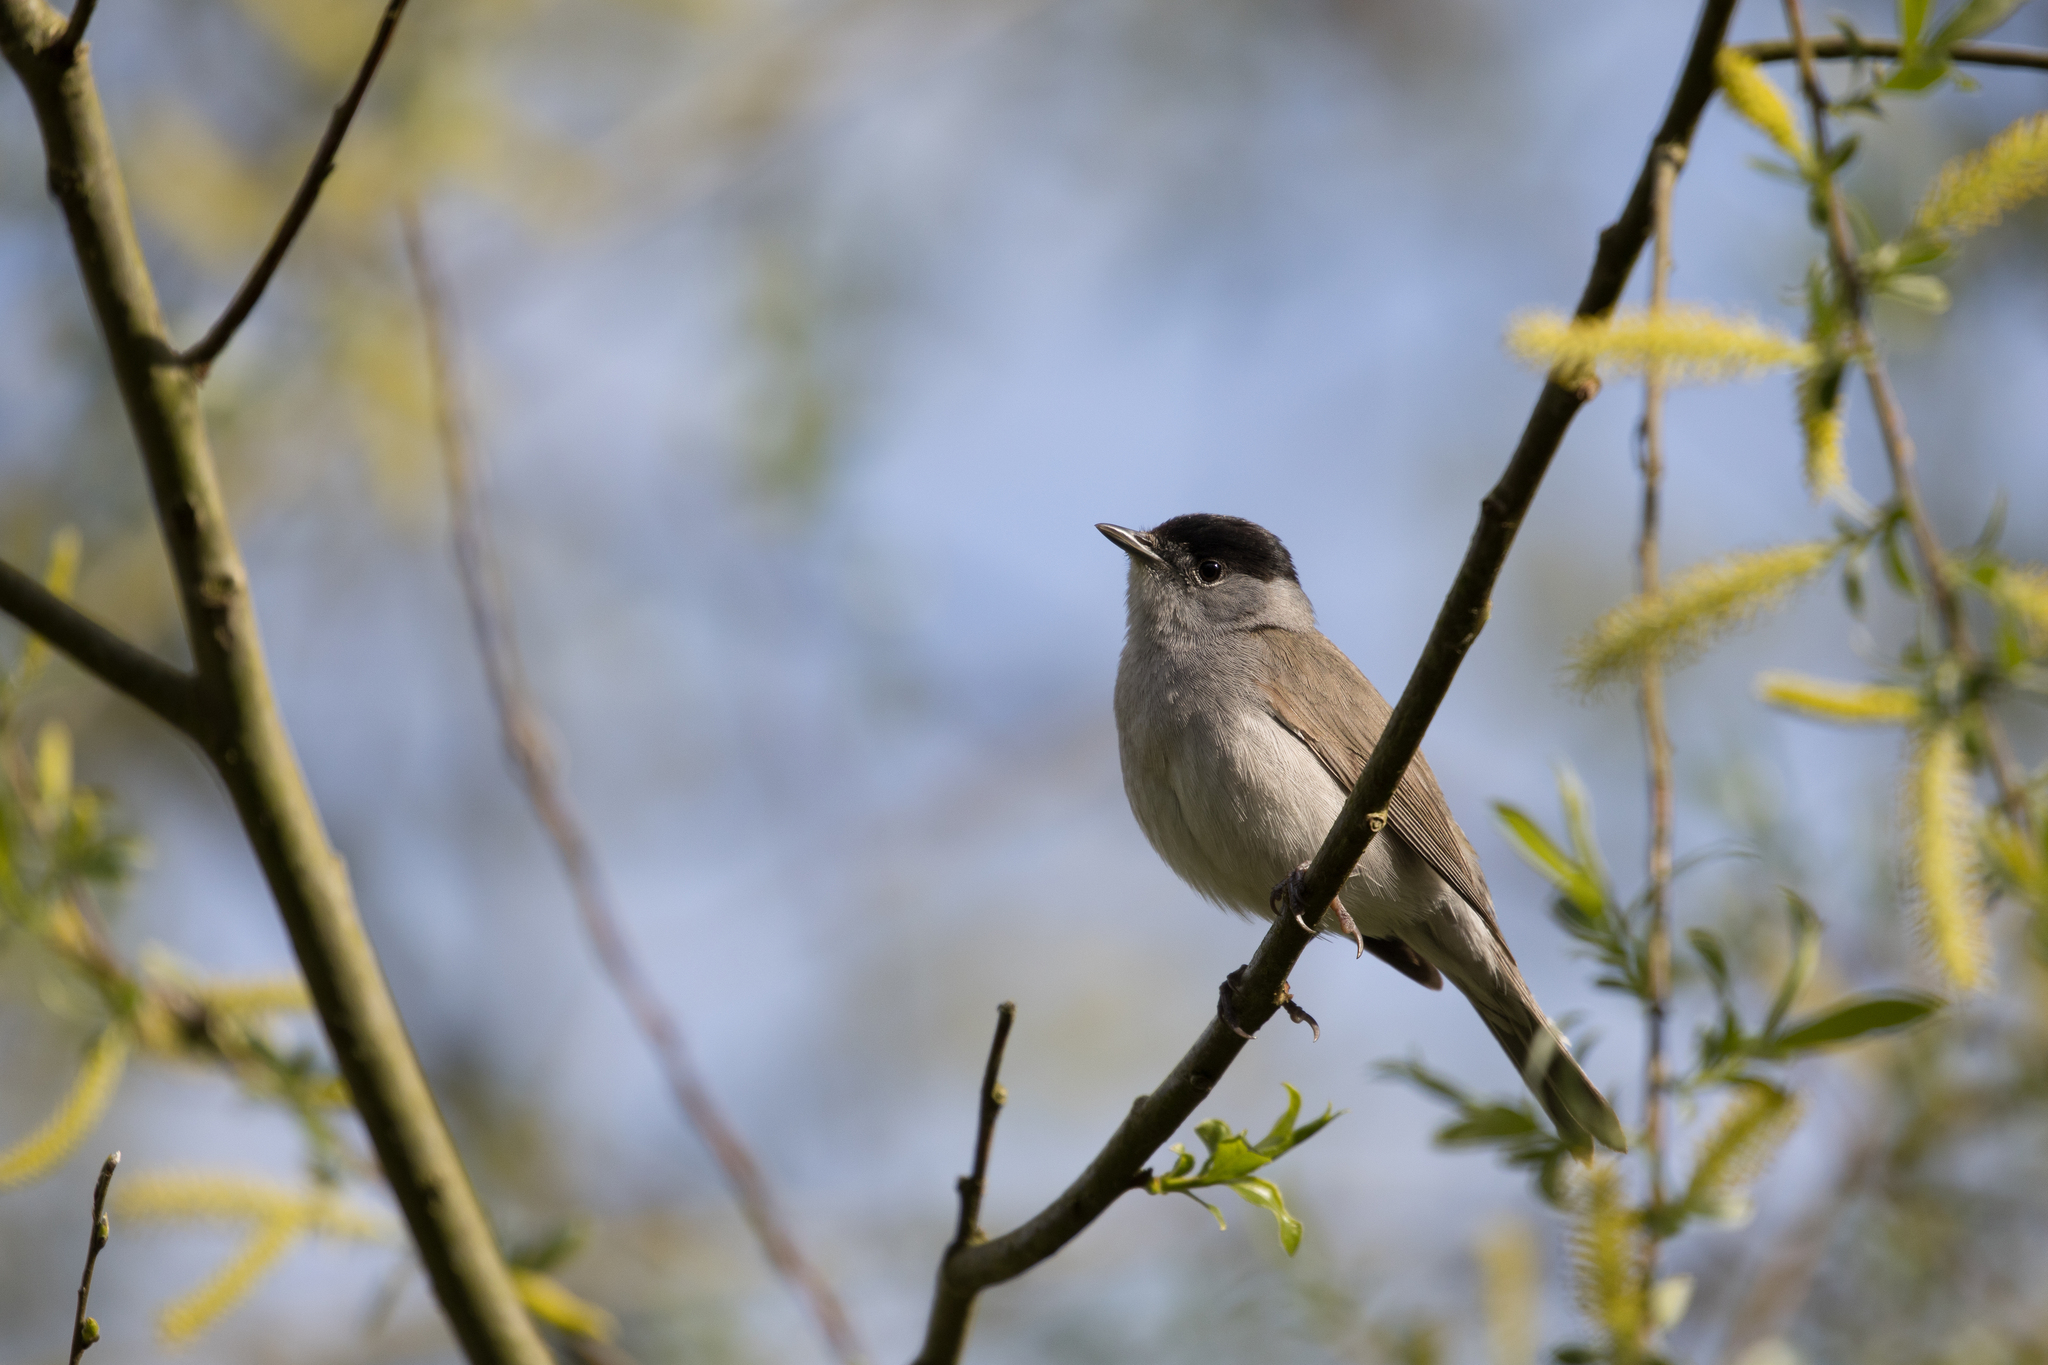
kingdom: Animalia
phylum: Chordata
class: Aves
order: Passeriformes
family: Sylviidae
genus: Sylvia
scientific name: Sylvia atricapilla
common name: Eurasian blackcap
